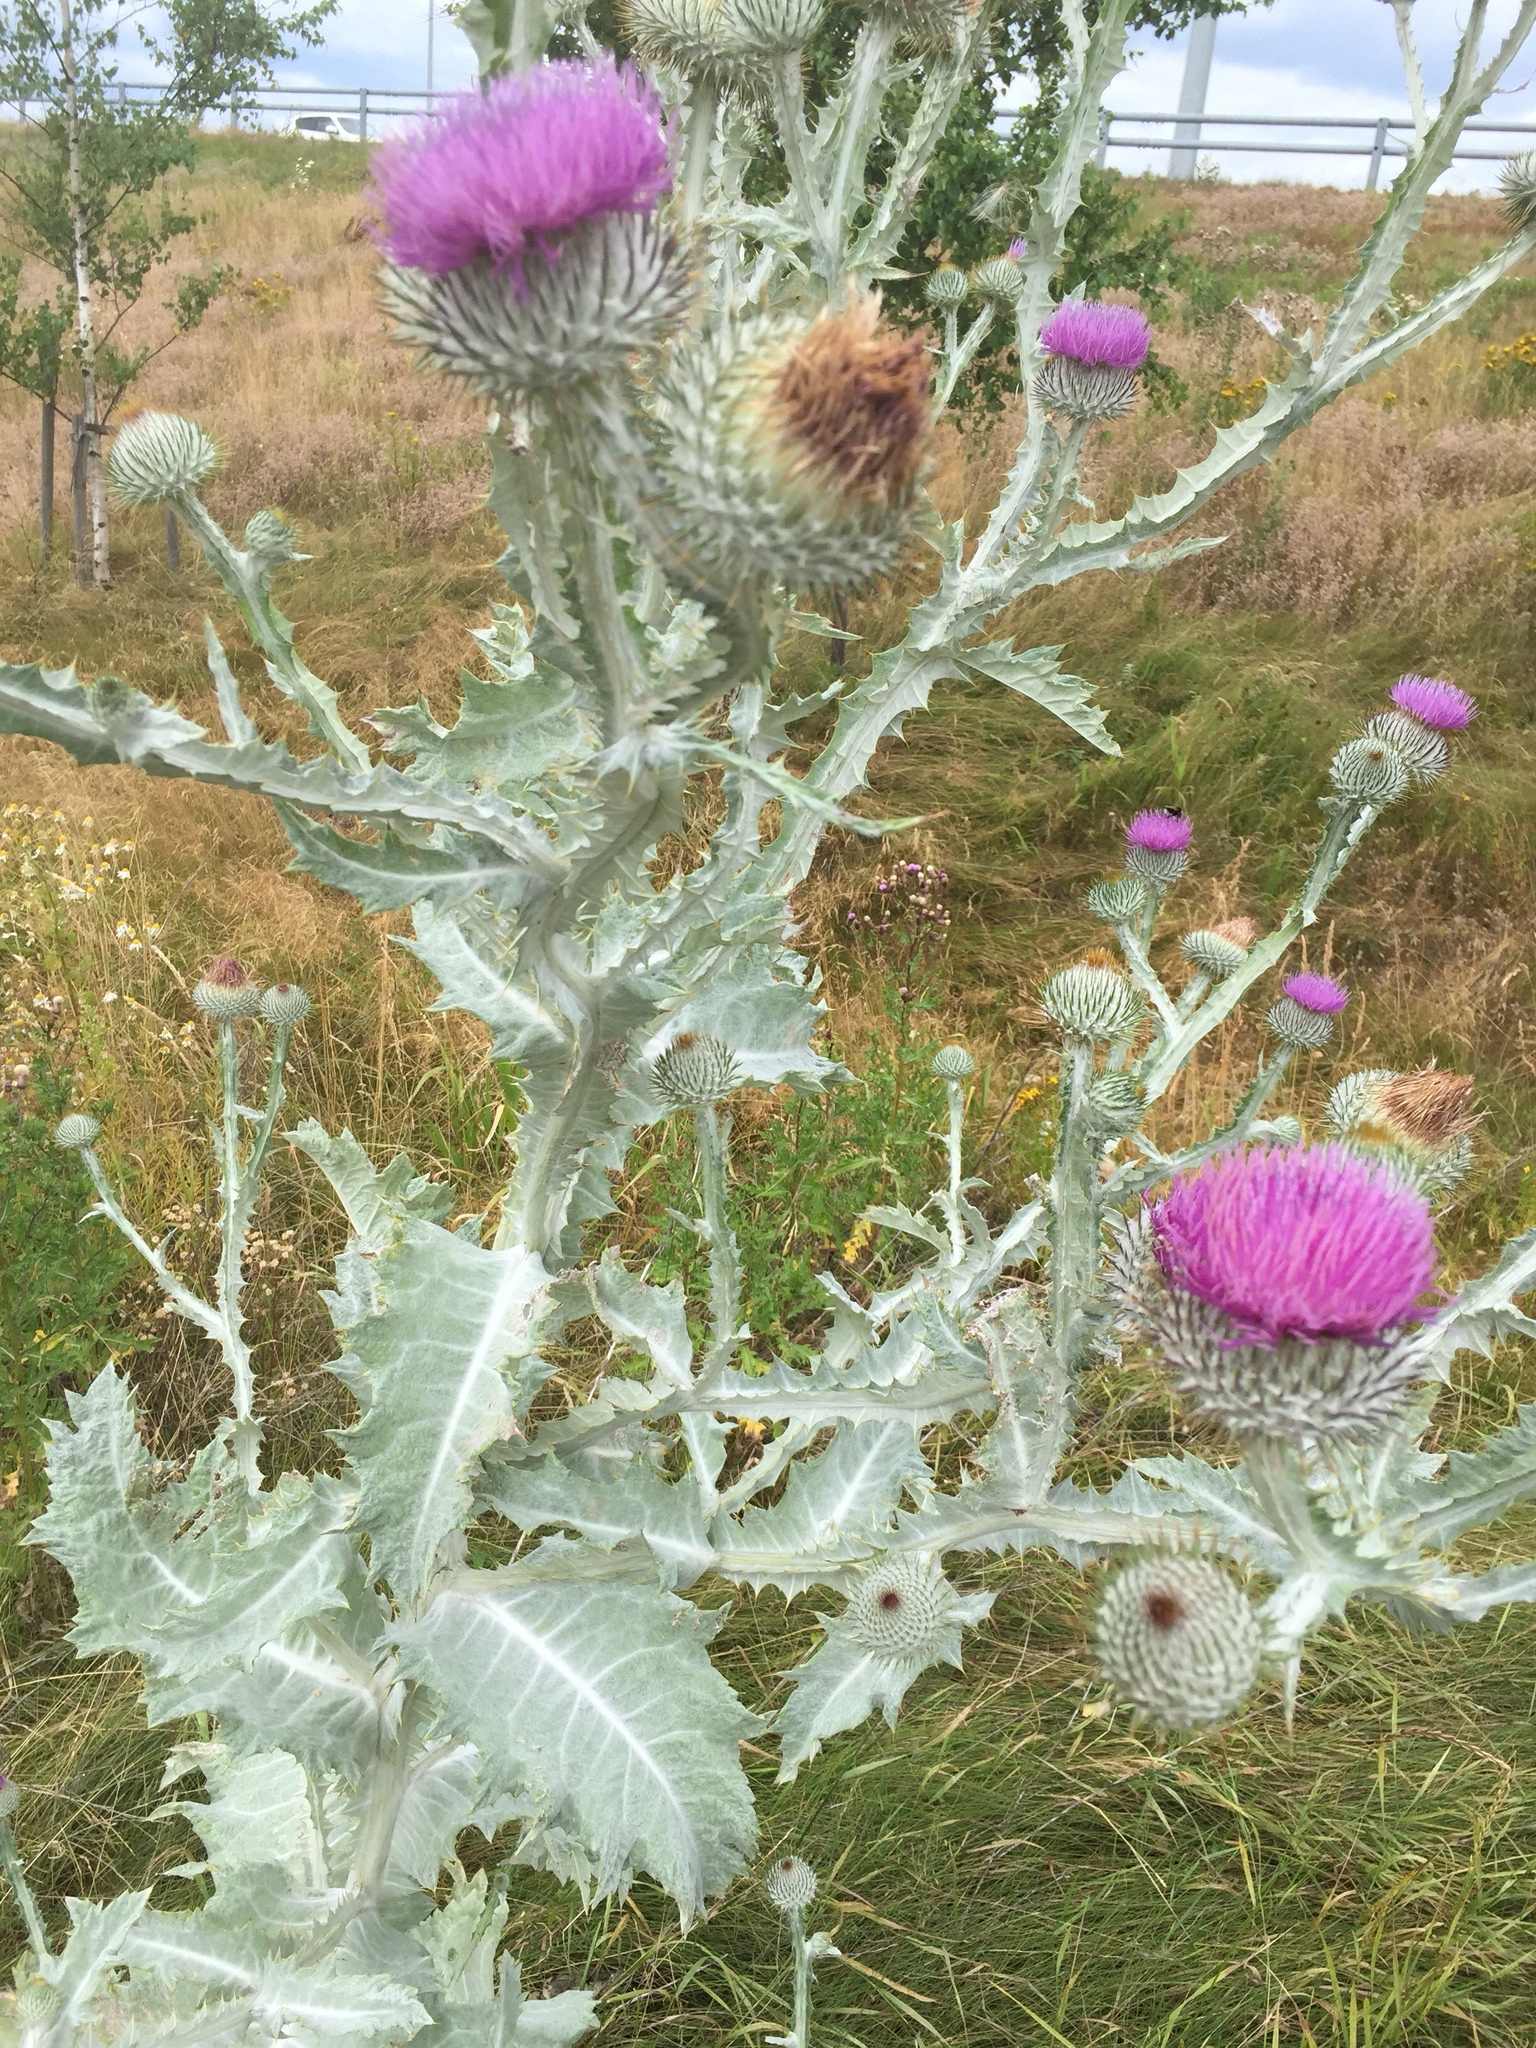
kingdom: Plantae
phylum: Tracheophyta
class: Magnoliopsida
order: Asterales
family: Asteraceae
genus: Onopordum
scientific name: Onopordum acanthium
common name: Scotch thistle
